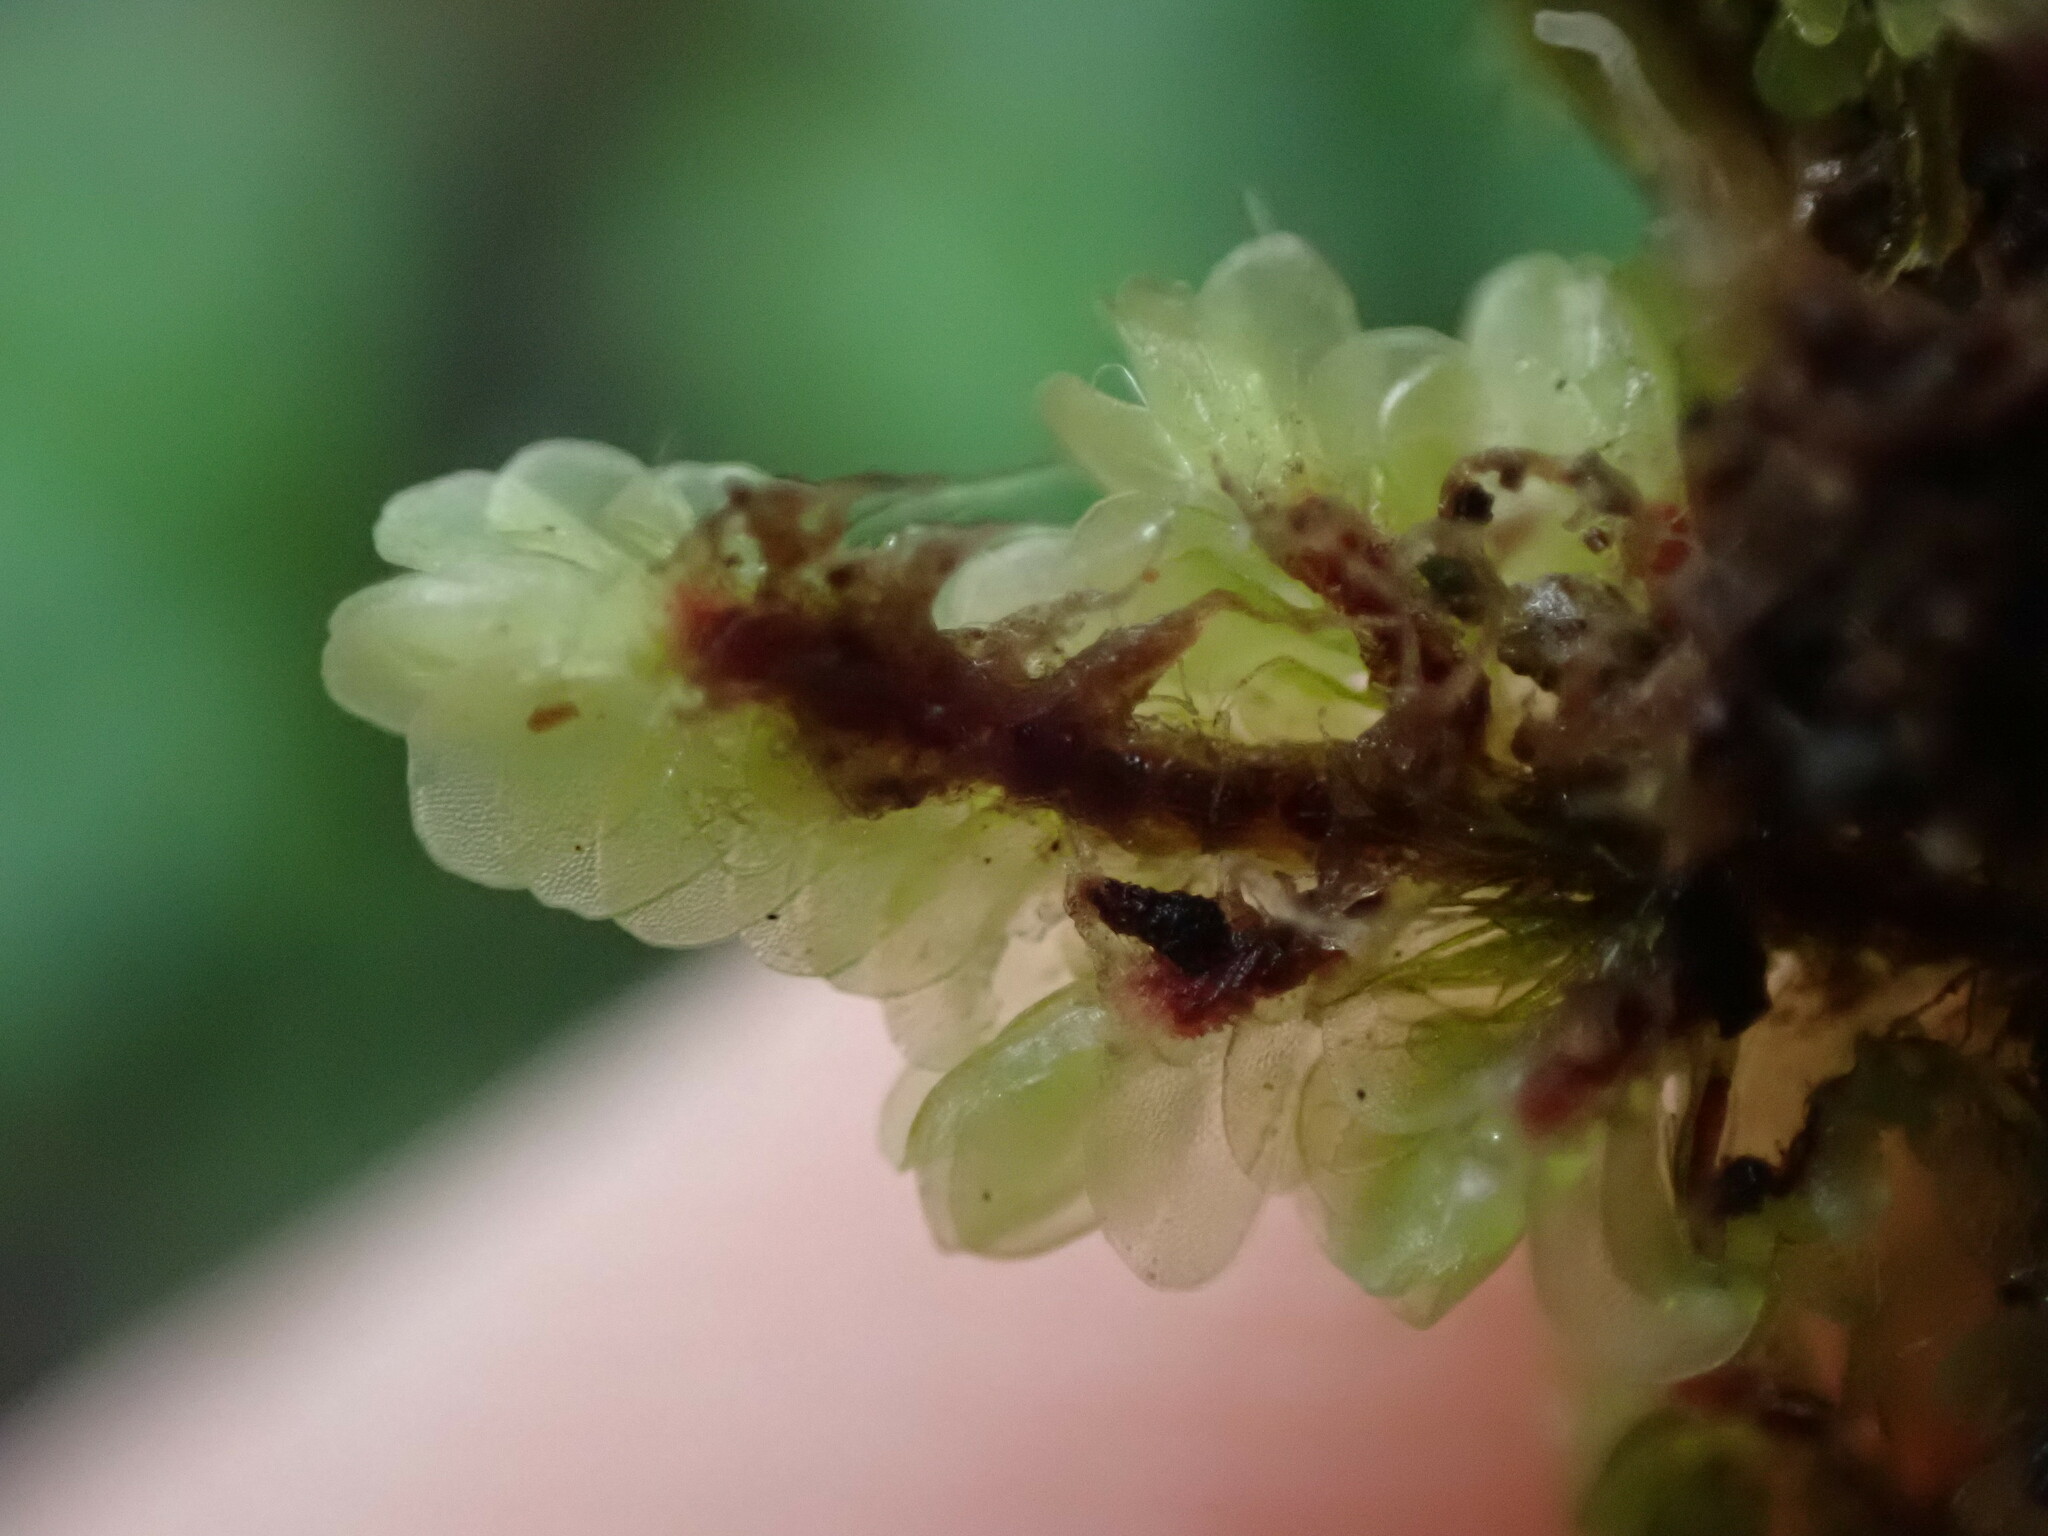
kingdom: Plantae
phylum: Marchantiophyta
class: Jungermanniopsida
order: Jungermanniales
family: Gyrothyraceae
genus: Gyrothyra
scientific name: Gyrothyra underwoodiana
